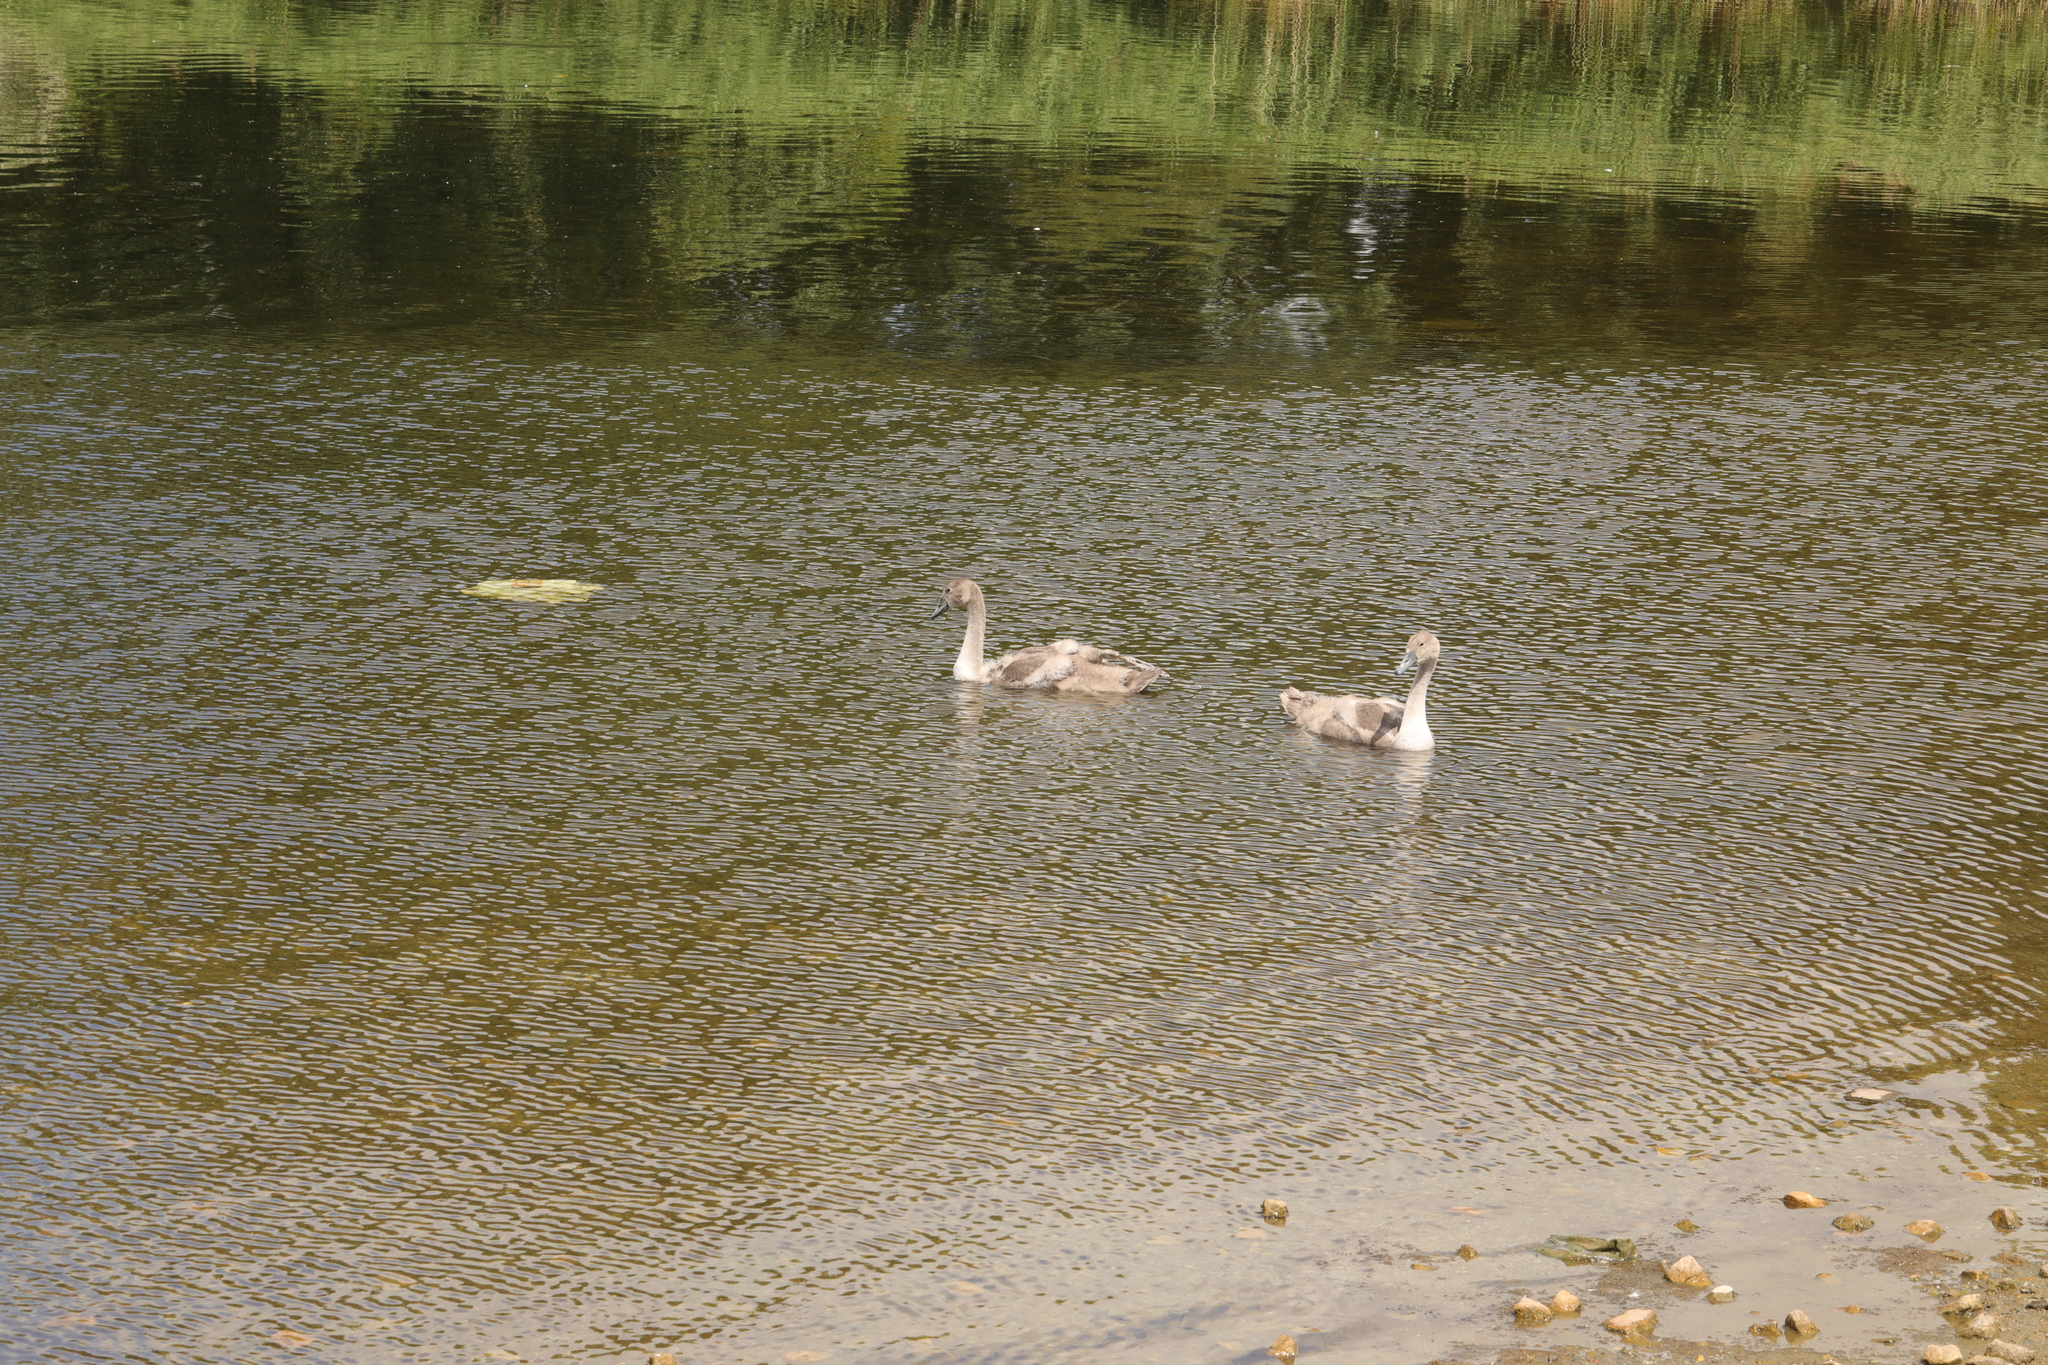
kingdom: Animalia
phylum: Chordata
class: Aves
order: Anseriformes
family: Anatidae
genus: Cygnus
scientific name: Cygnus olor
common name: Mute swan
